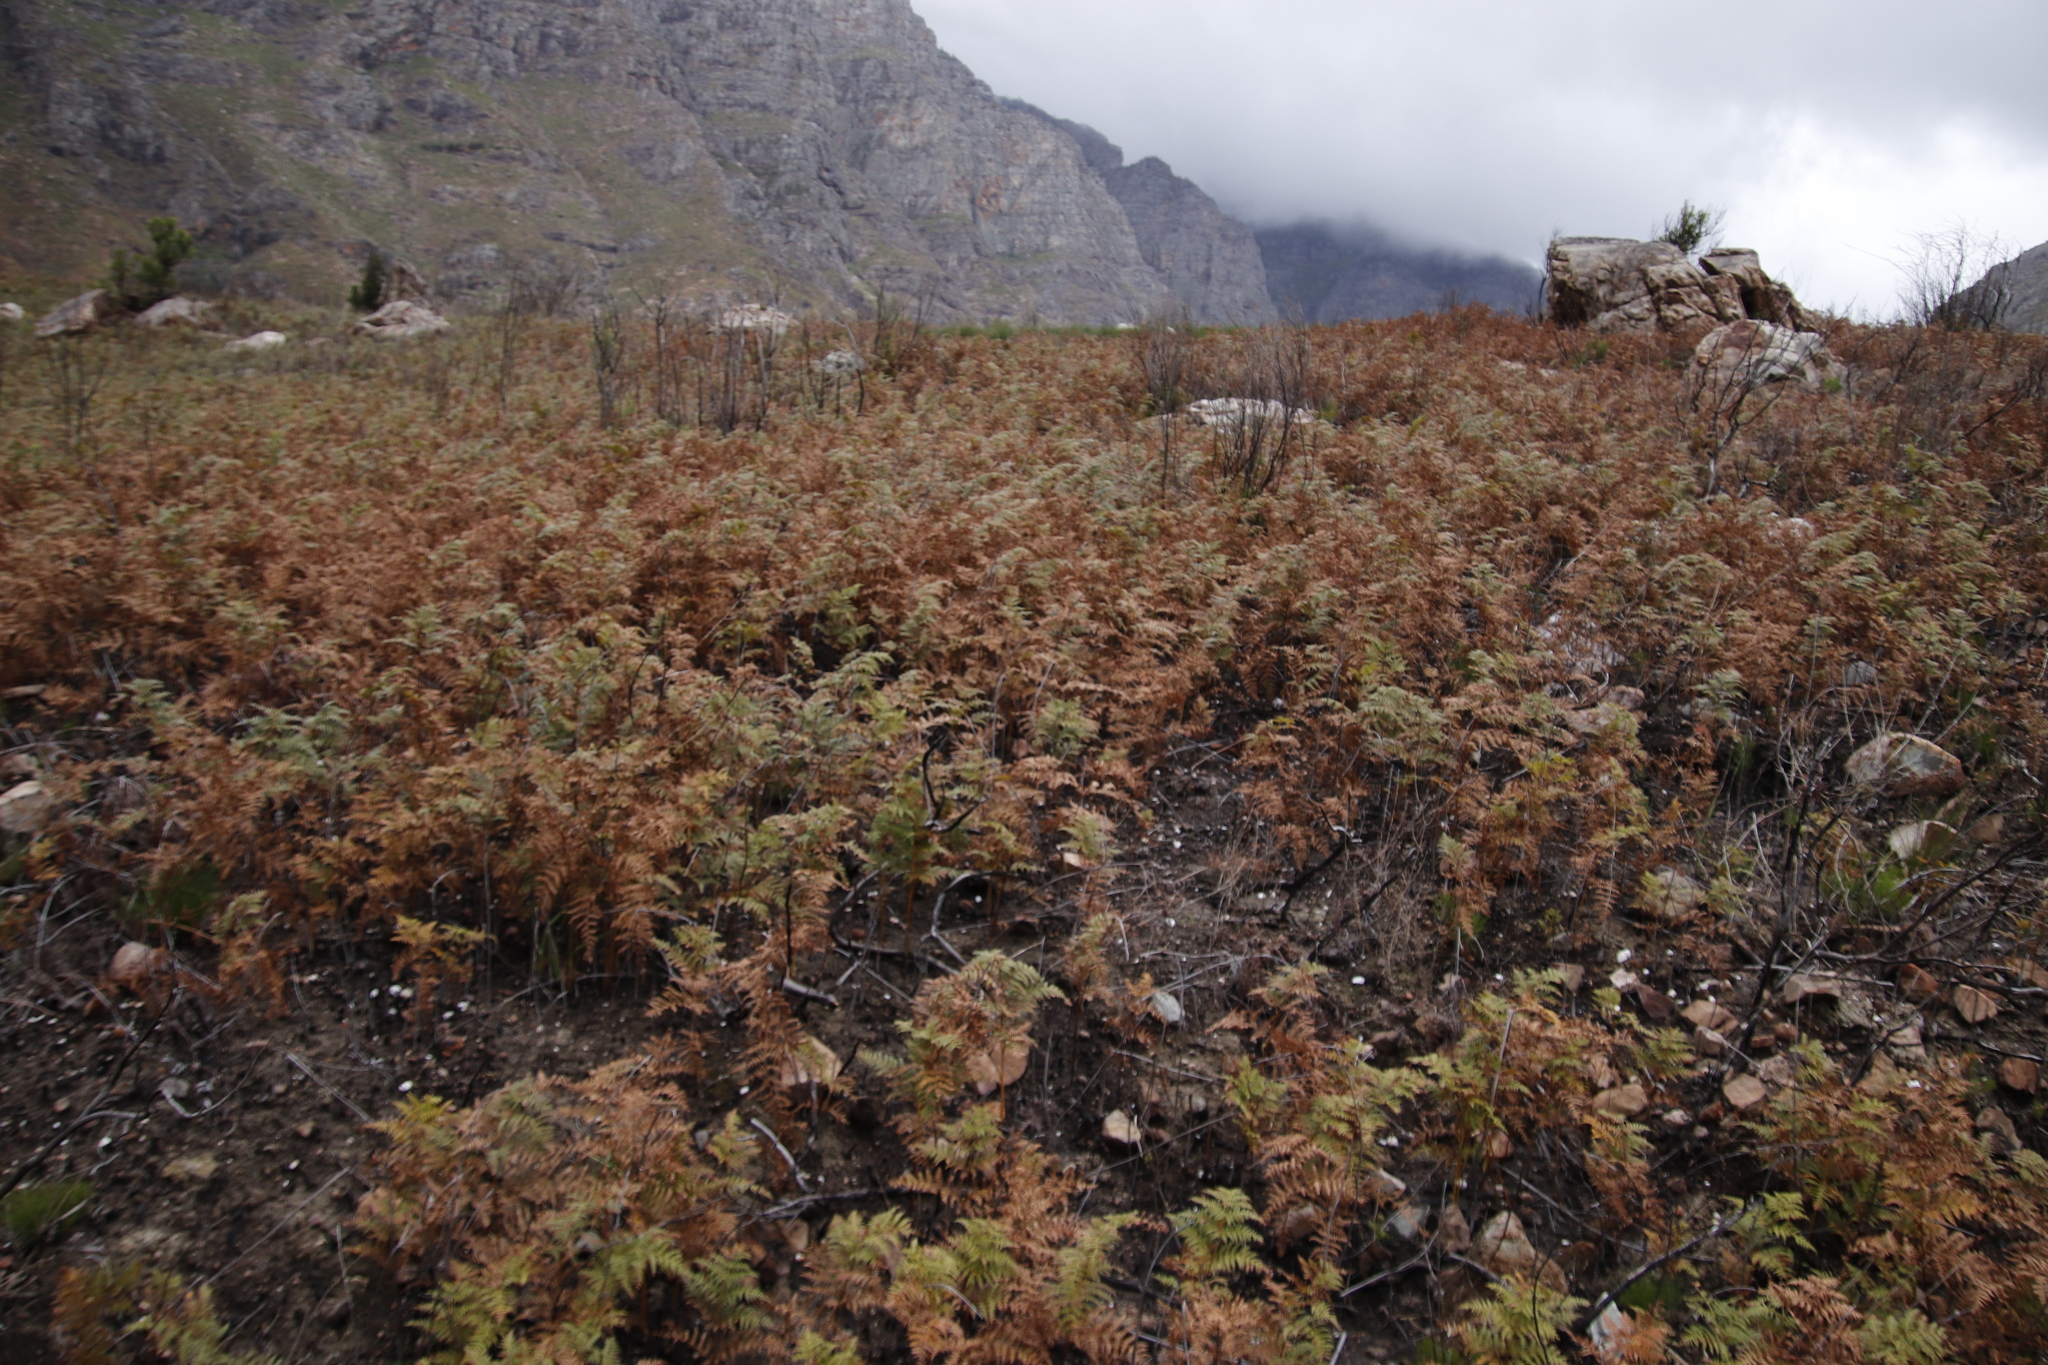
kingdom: Plantae
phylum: Tracheophyta
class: Polypodiopsida
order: Polypodiales
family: Dennstaedtiaceae
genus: Pteridium
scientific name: Pteridium aquilinum
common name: Bracken
